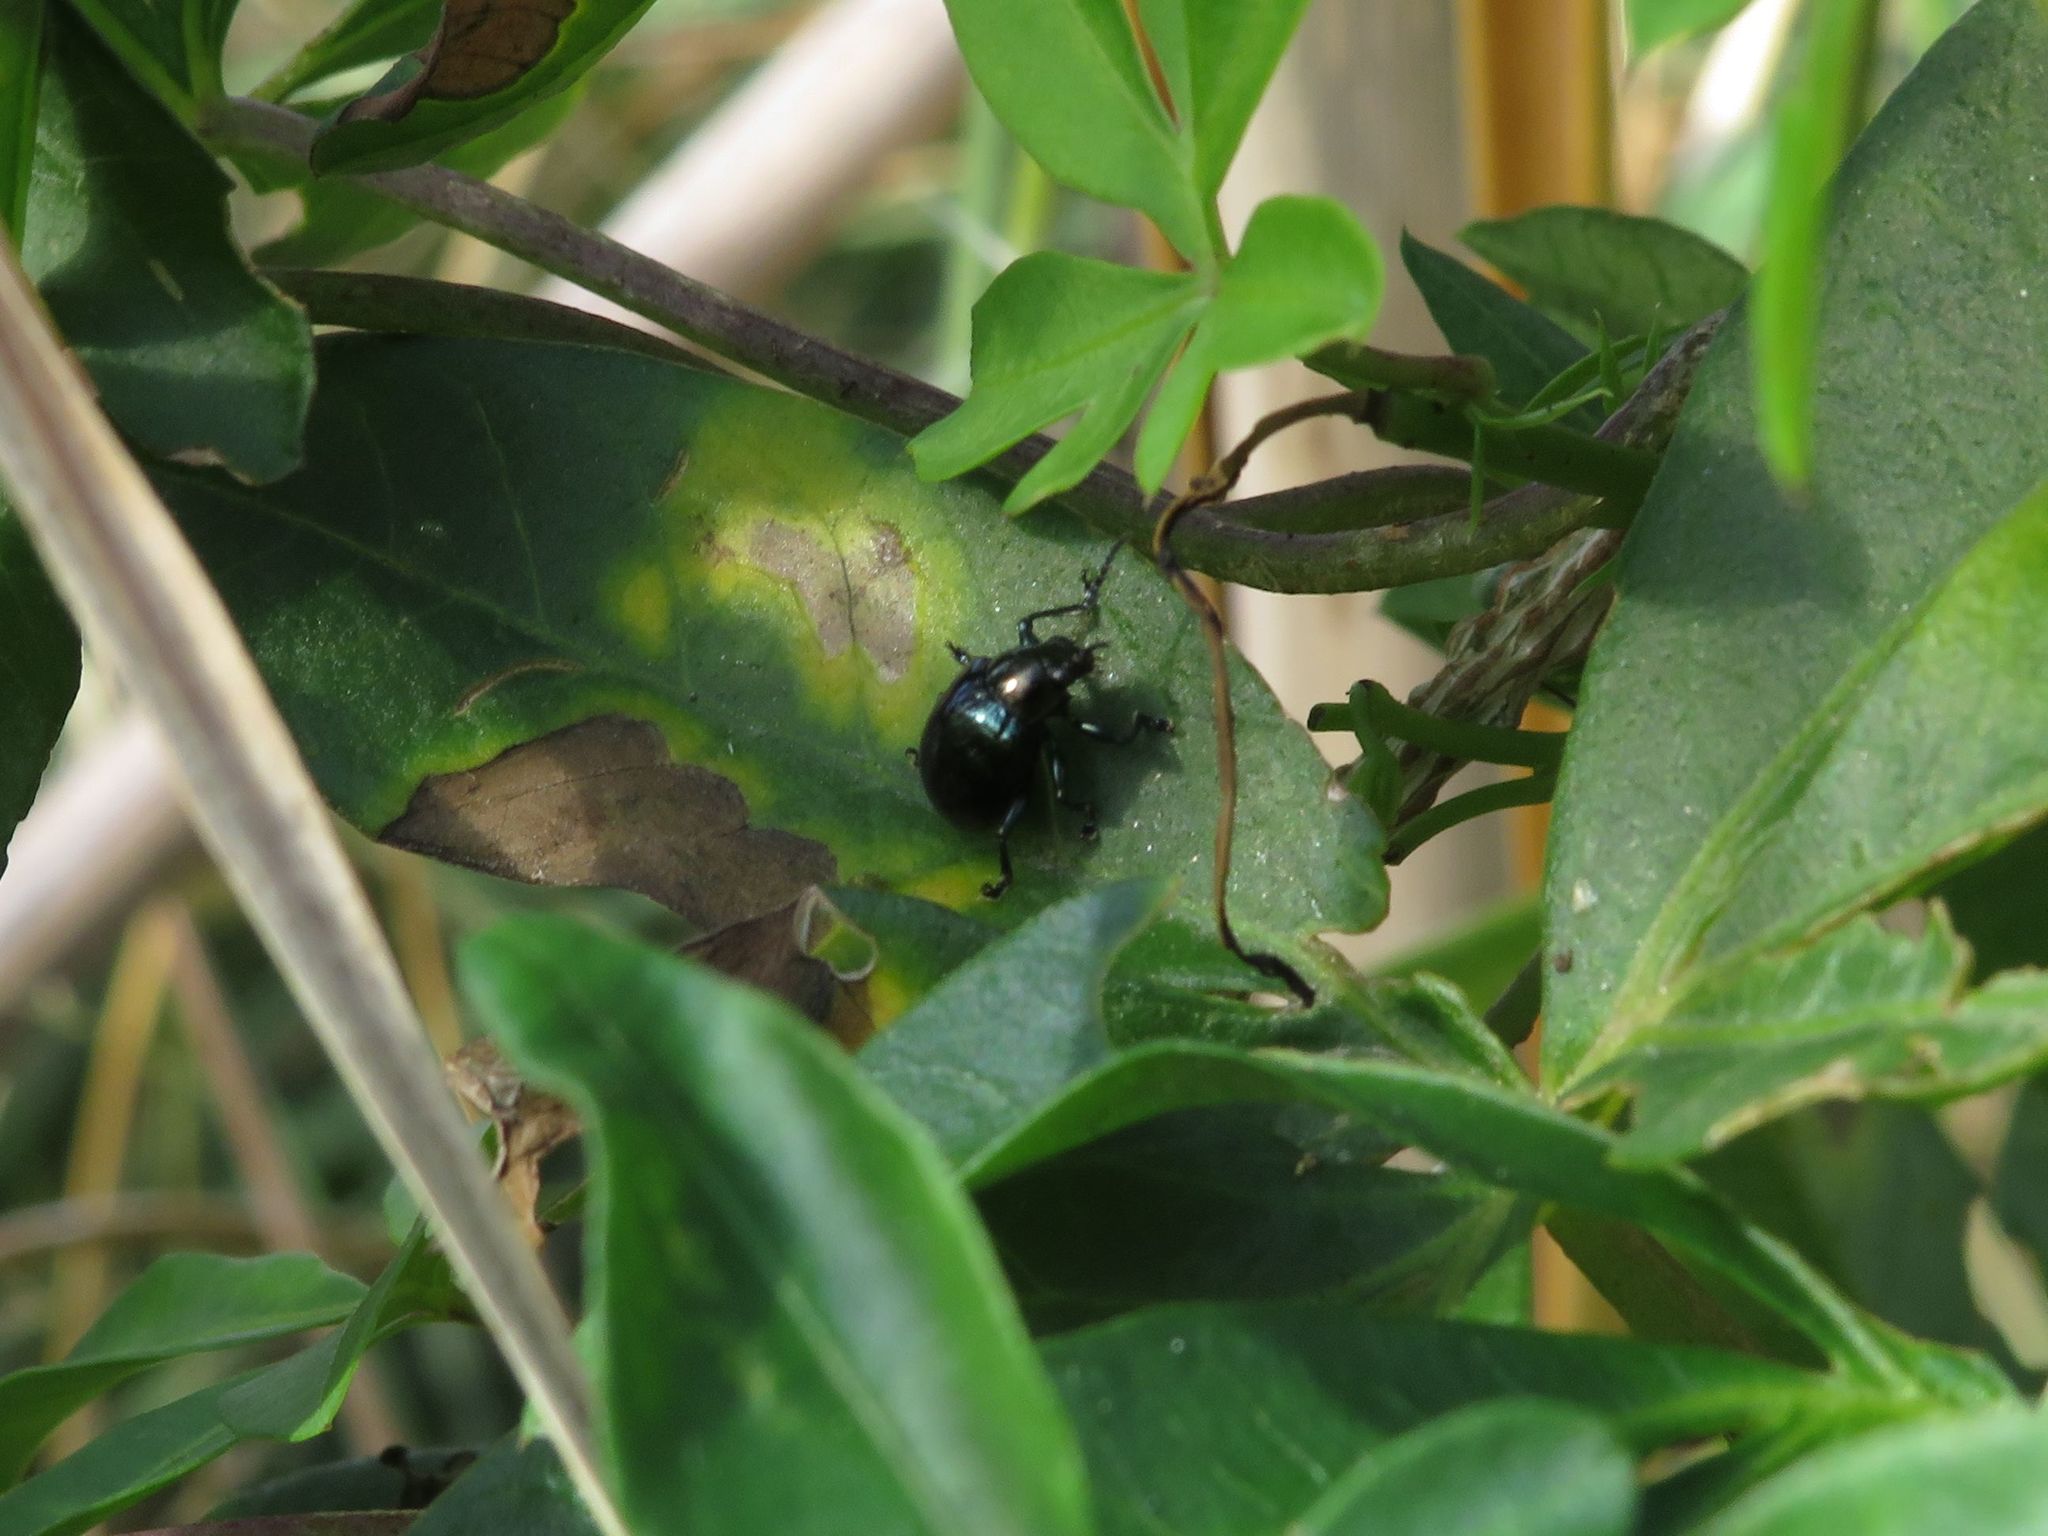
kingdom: Animalia
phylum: Arthropoda
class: Insecta
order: Coleoptera
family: Chrysomelidae
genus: Typophorus
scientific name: Typophorus nigritus
